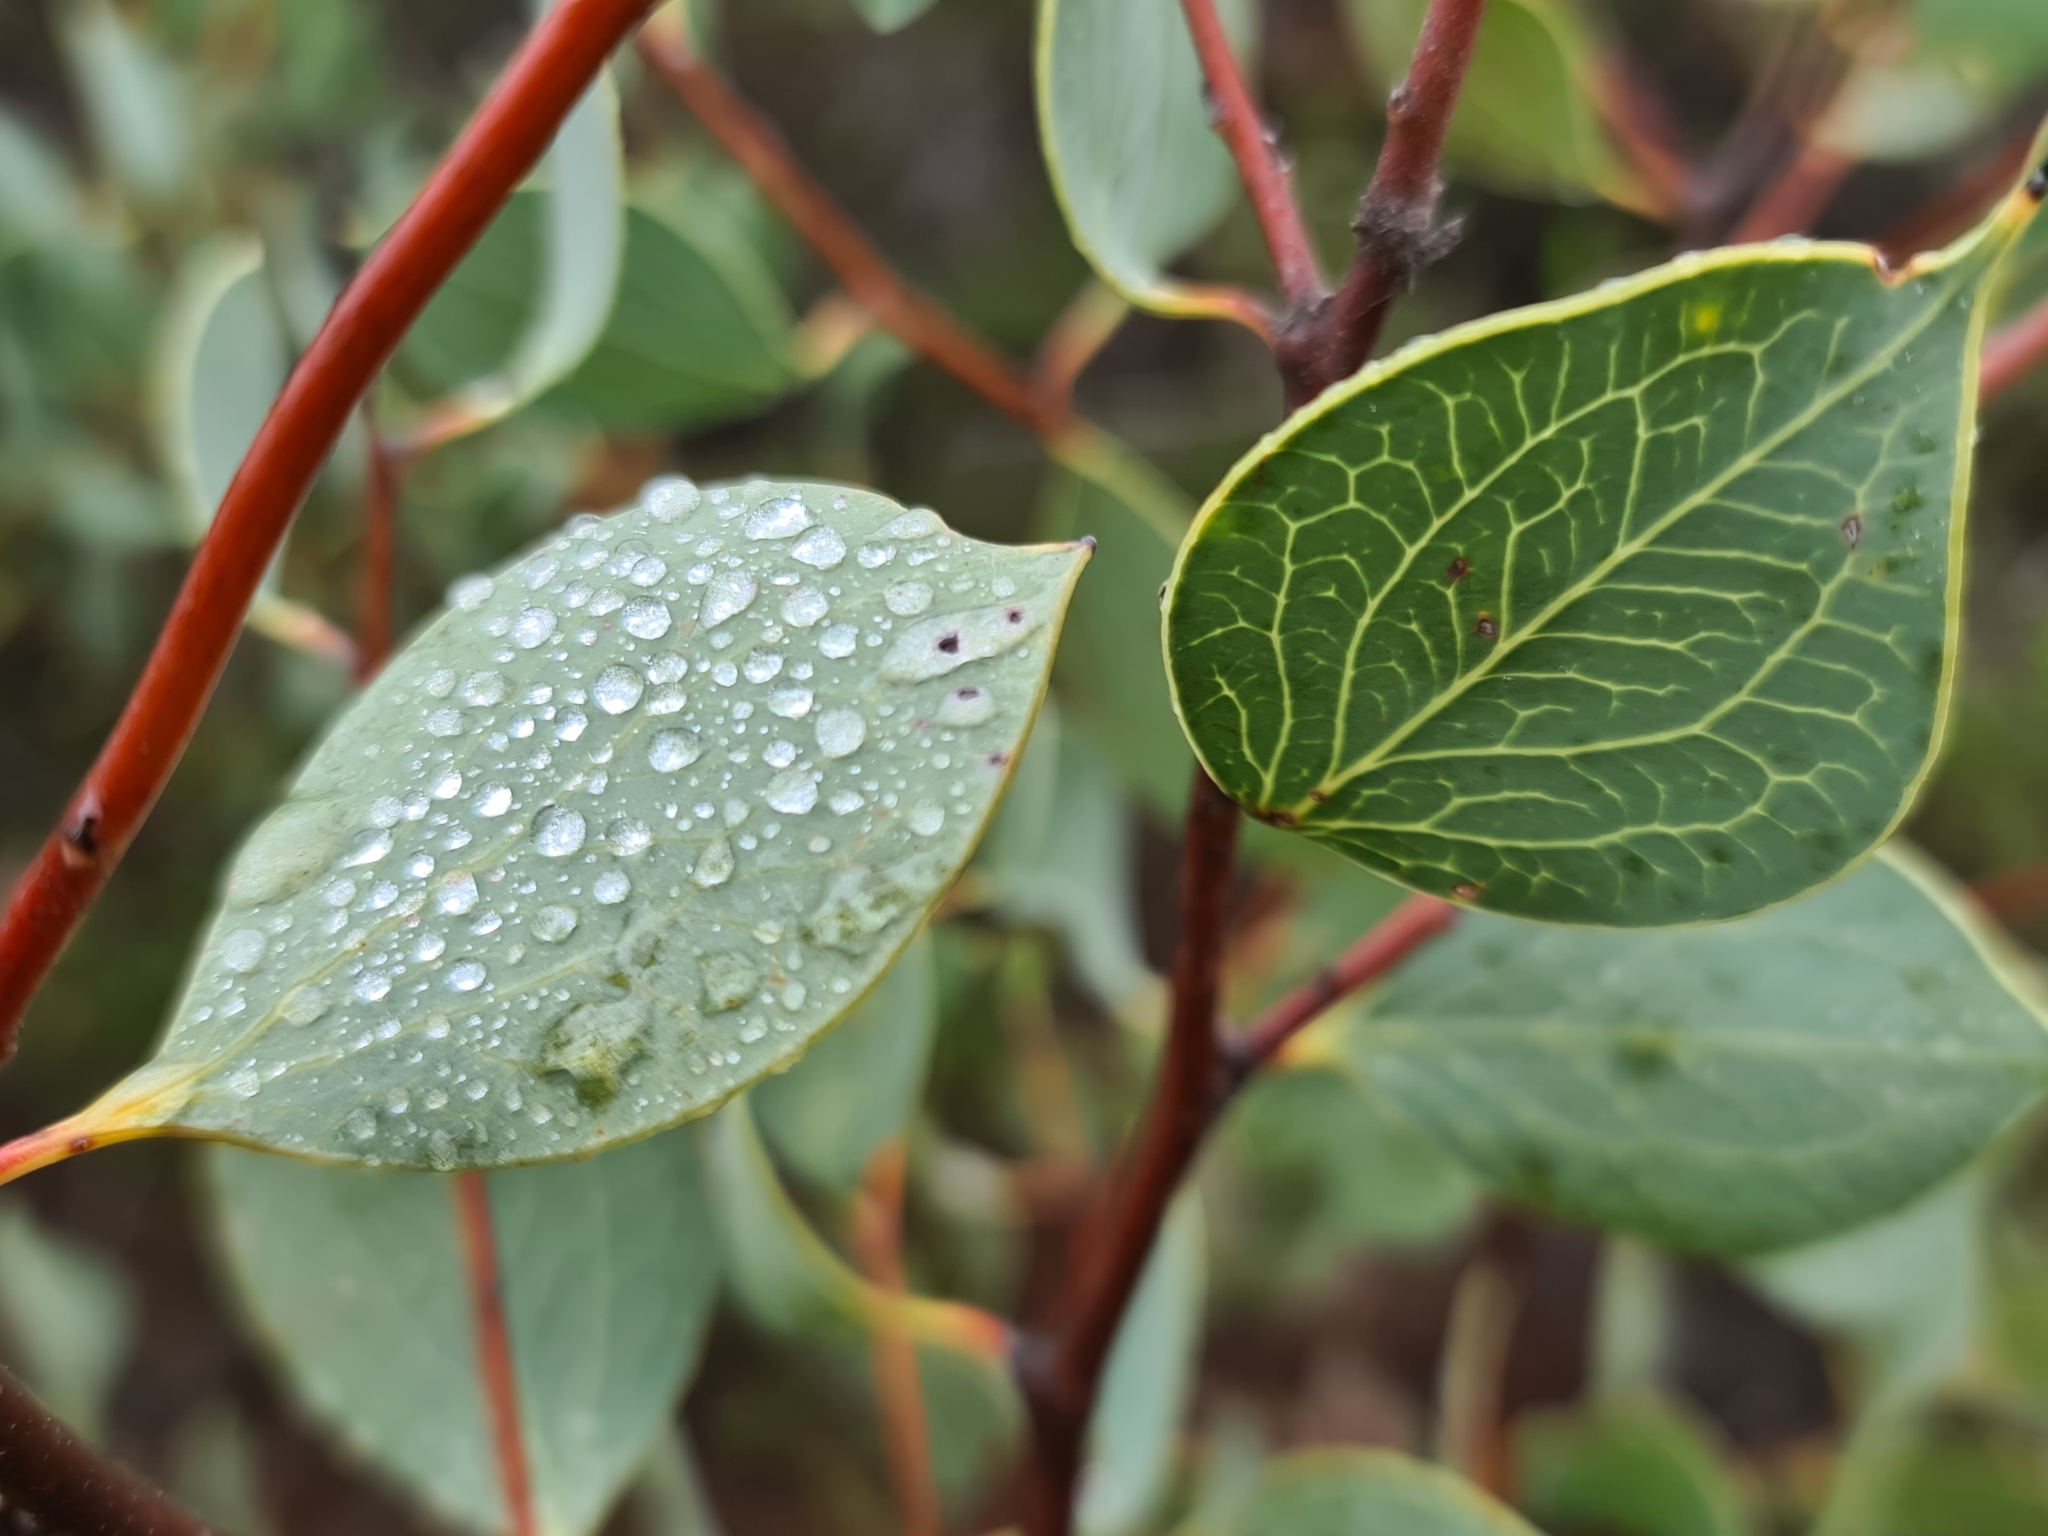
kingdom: Plantae
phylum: Tracheophyta
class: Magnoliopsida
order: Proteales
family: Proteaceae
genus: Hakea
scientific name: Hakea petiolaris
